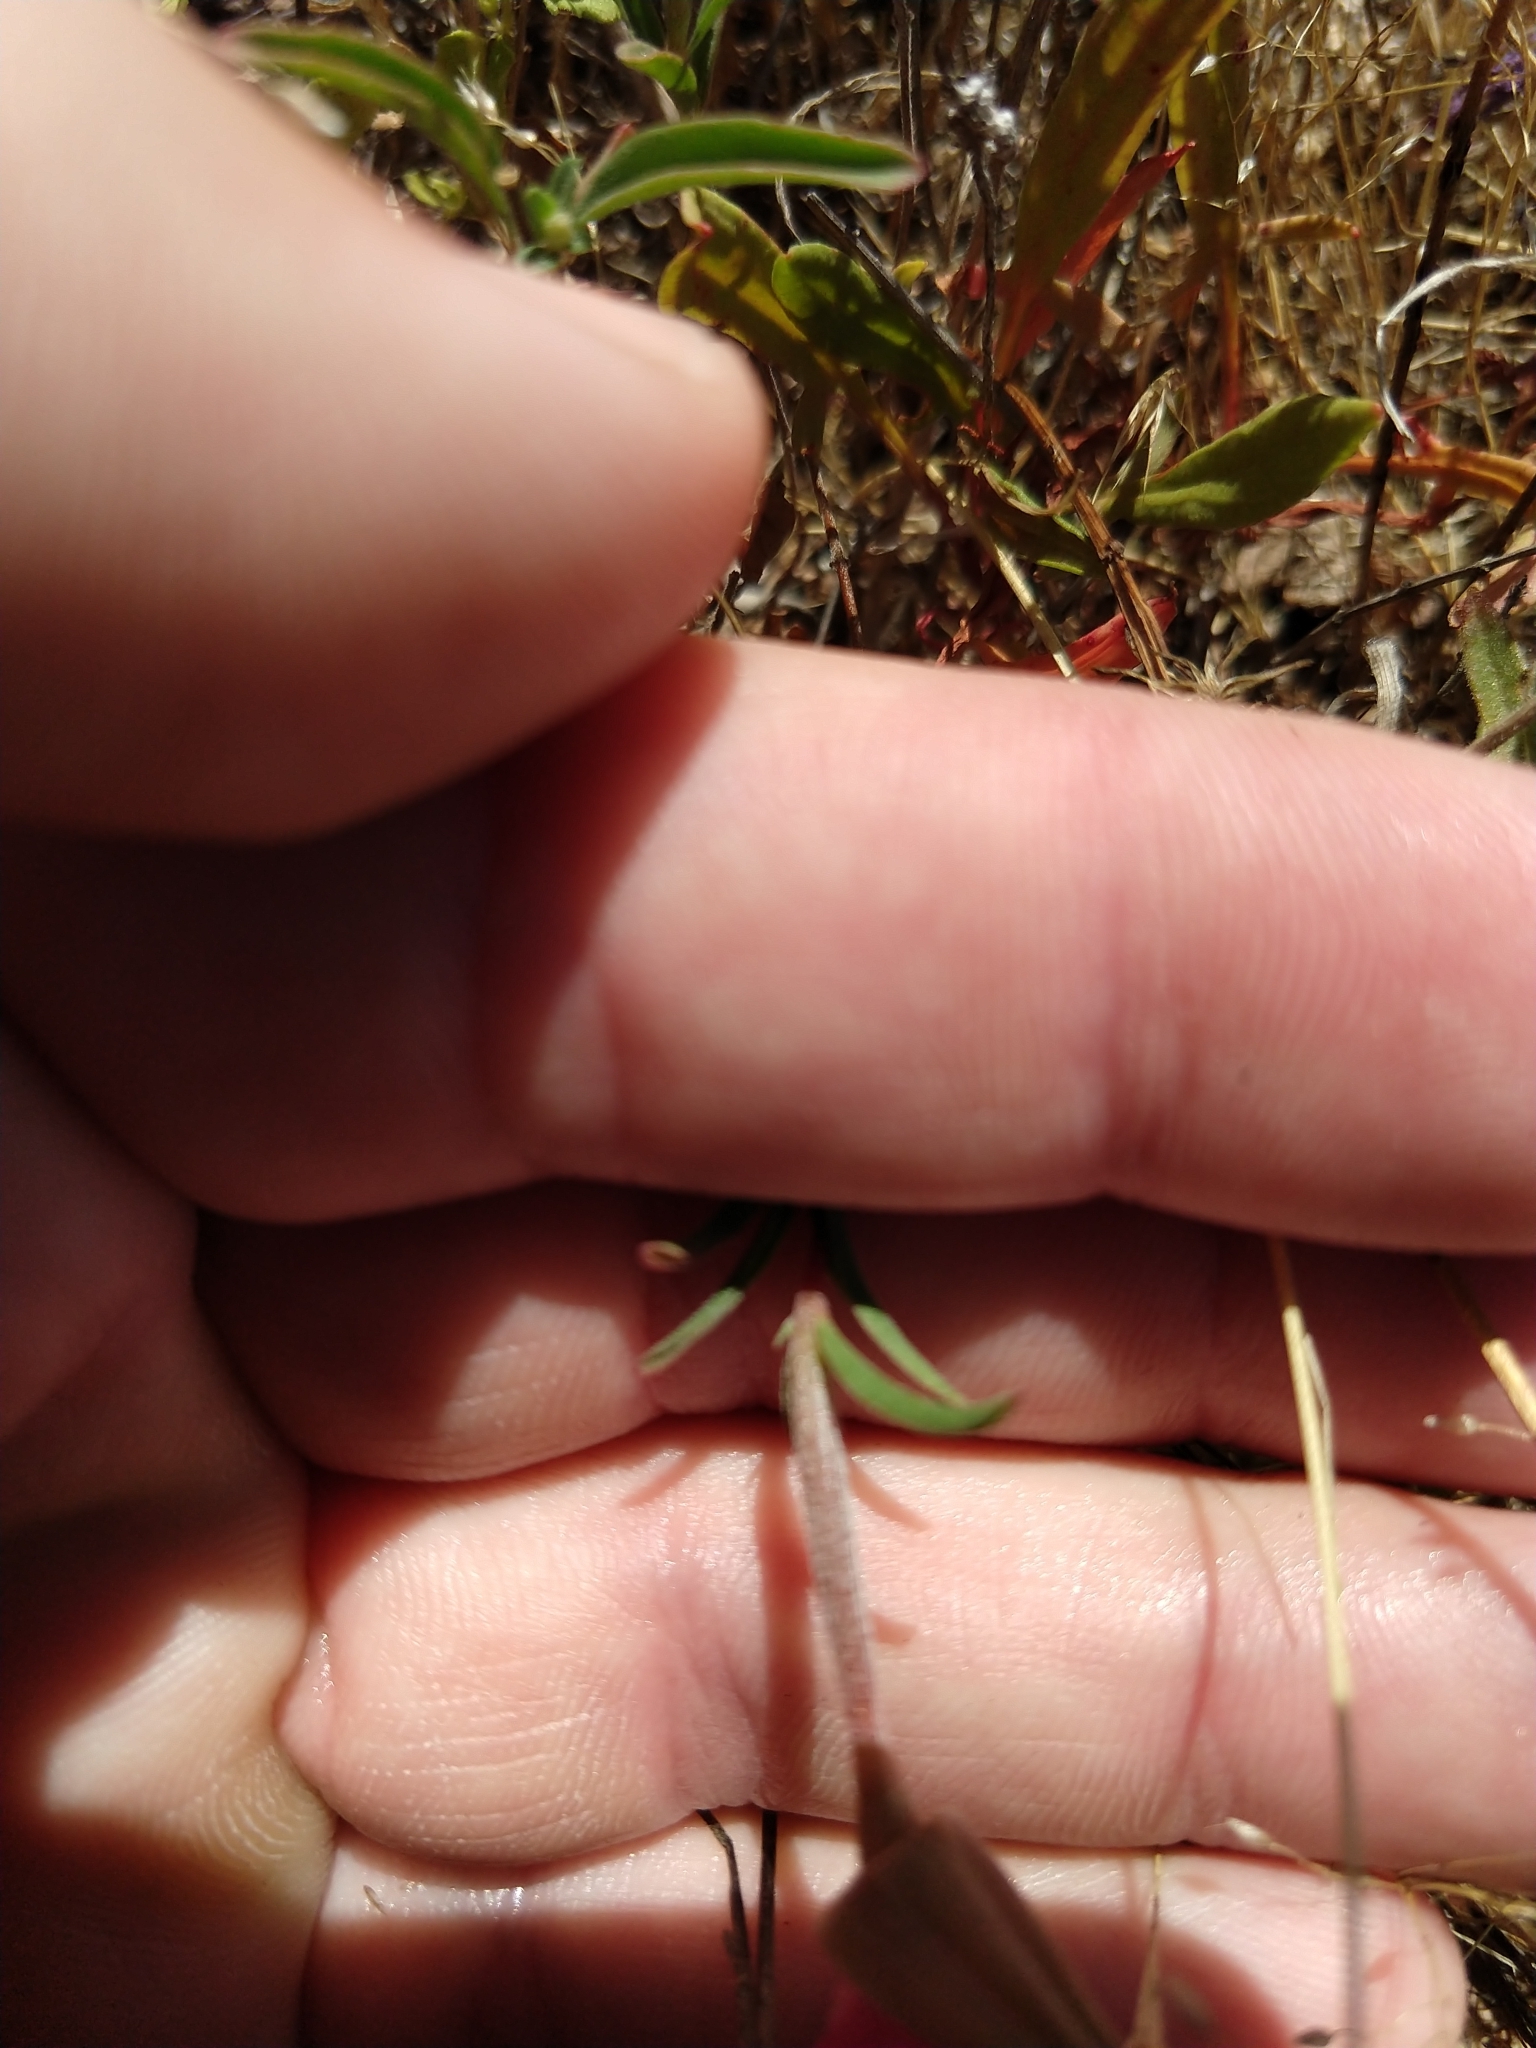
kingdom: Plantae
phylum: Tracheophyta
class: Magnoliopsida
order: Myrtales
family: Onagraceae
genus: Clarkia
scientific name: Clarkia rubicunda
